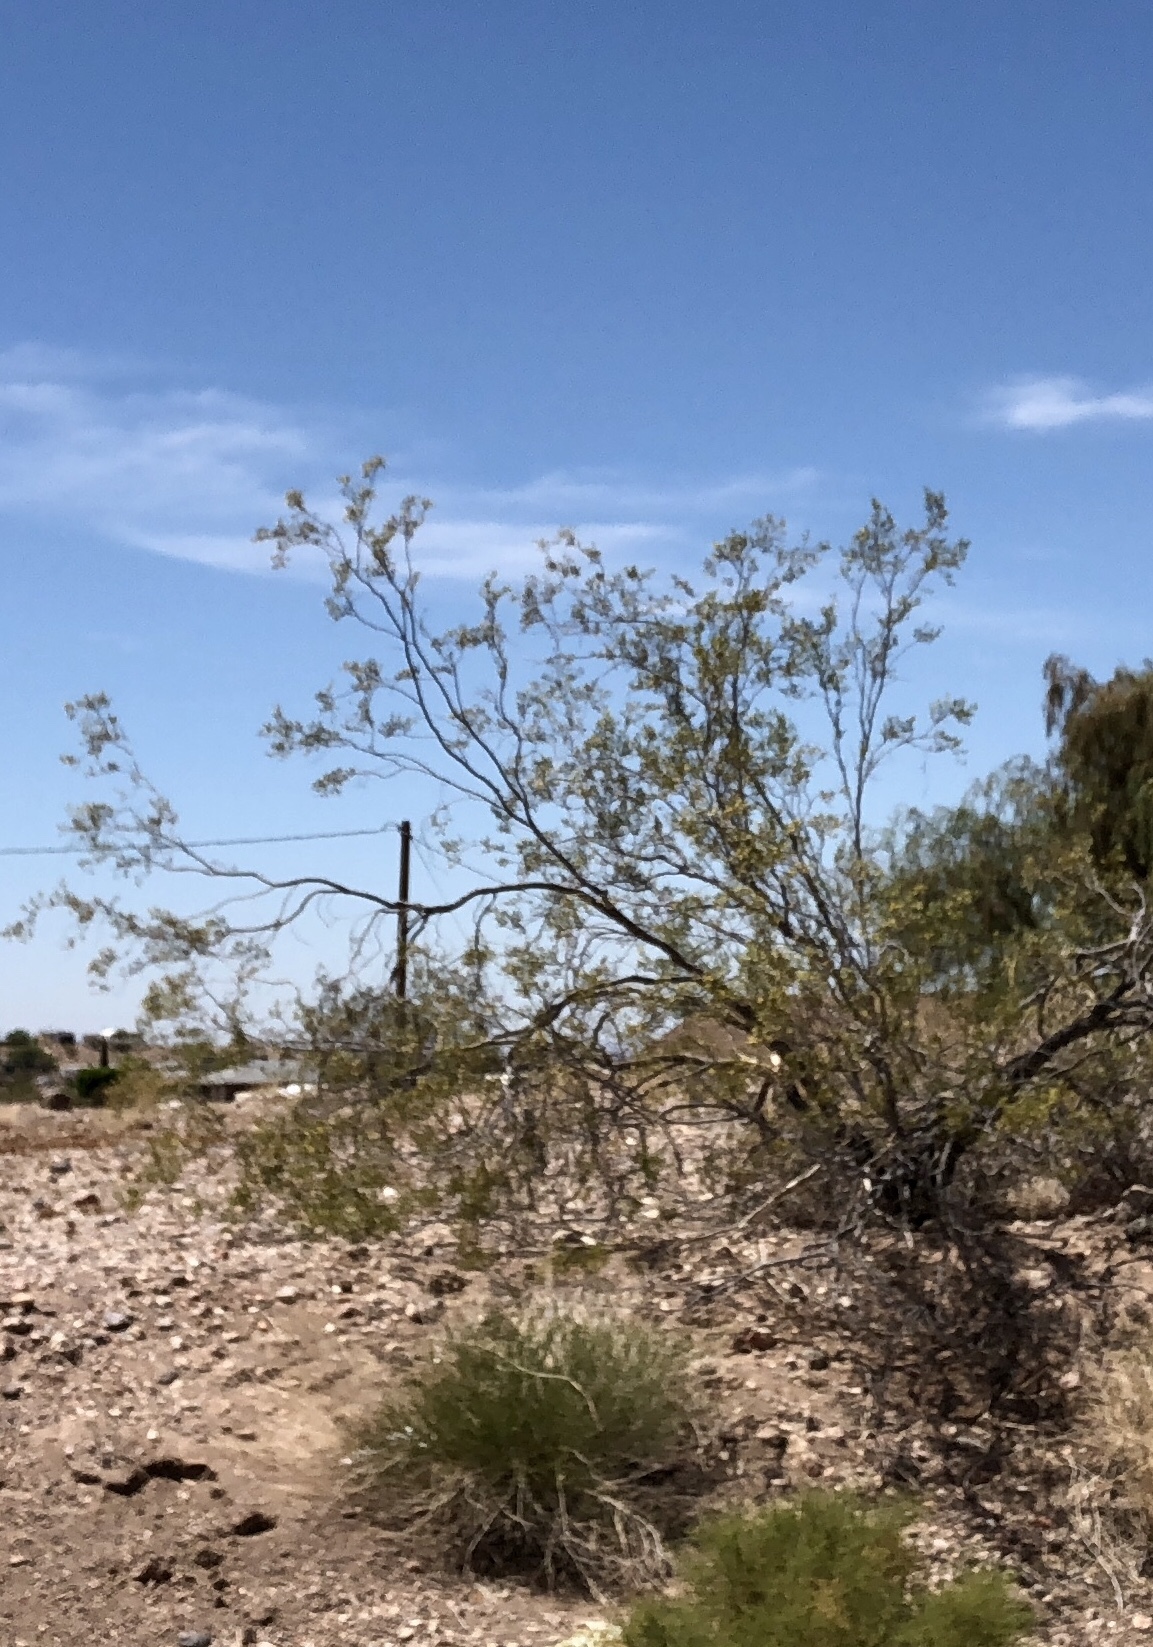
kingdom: Plantae
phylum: Tracheophyta
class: Magnoliopsida
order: Zygophyllales
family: Zygophyllaceae
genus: Larrea
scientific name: Larrea tridentata
